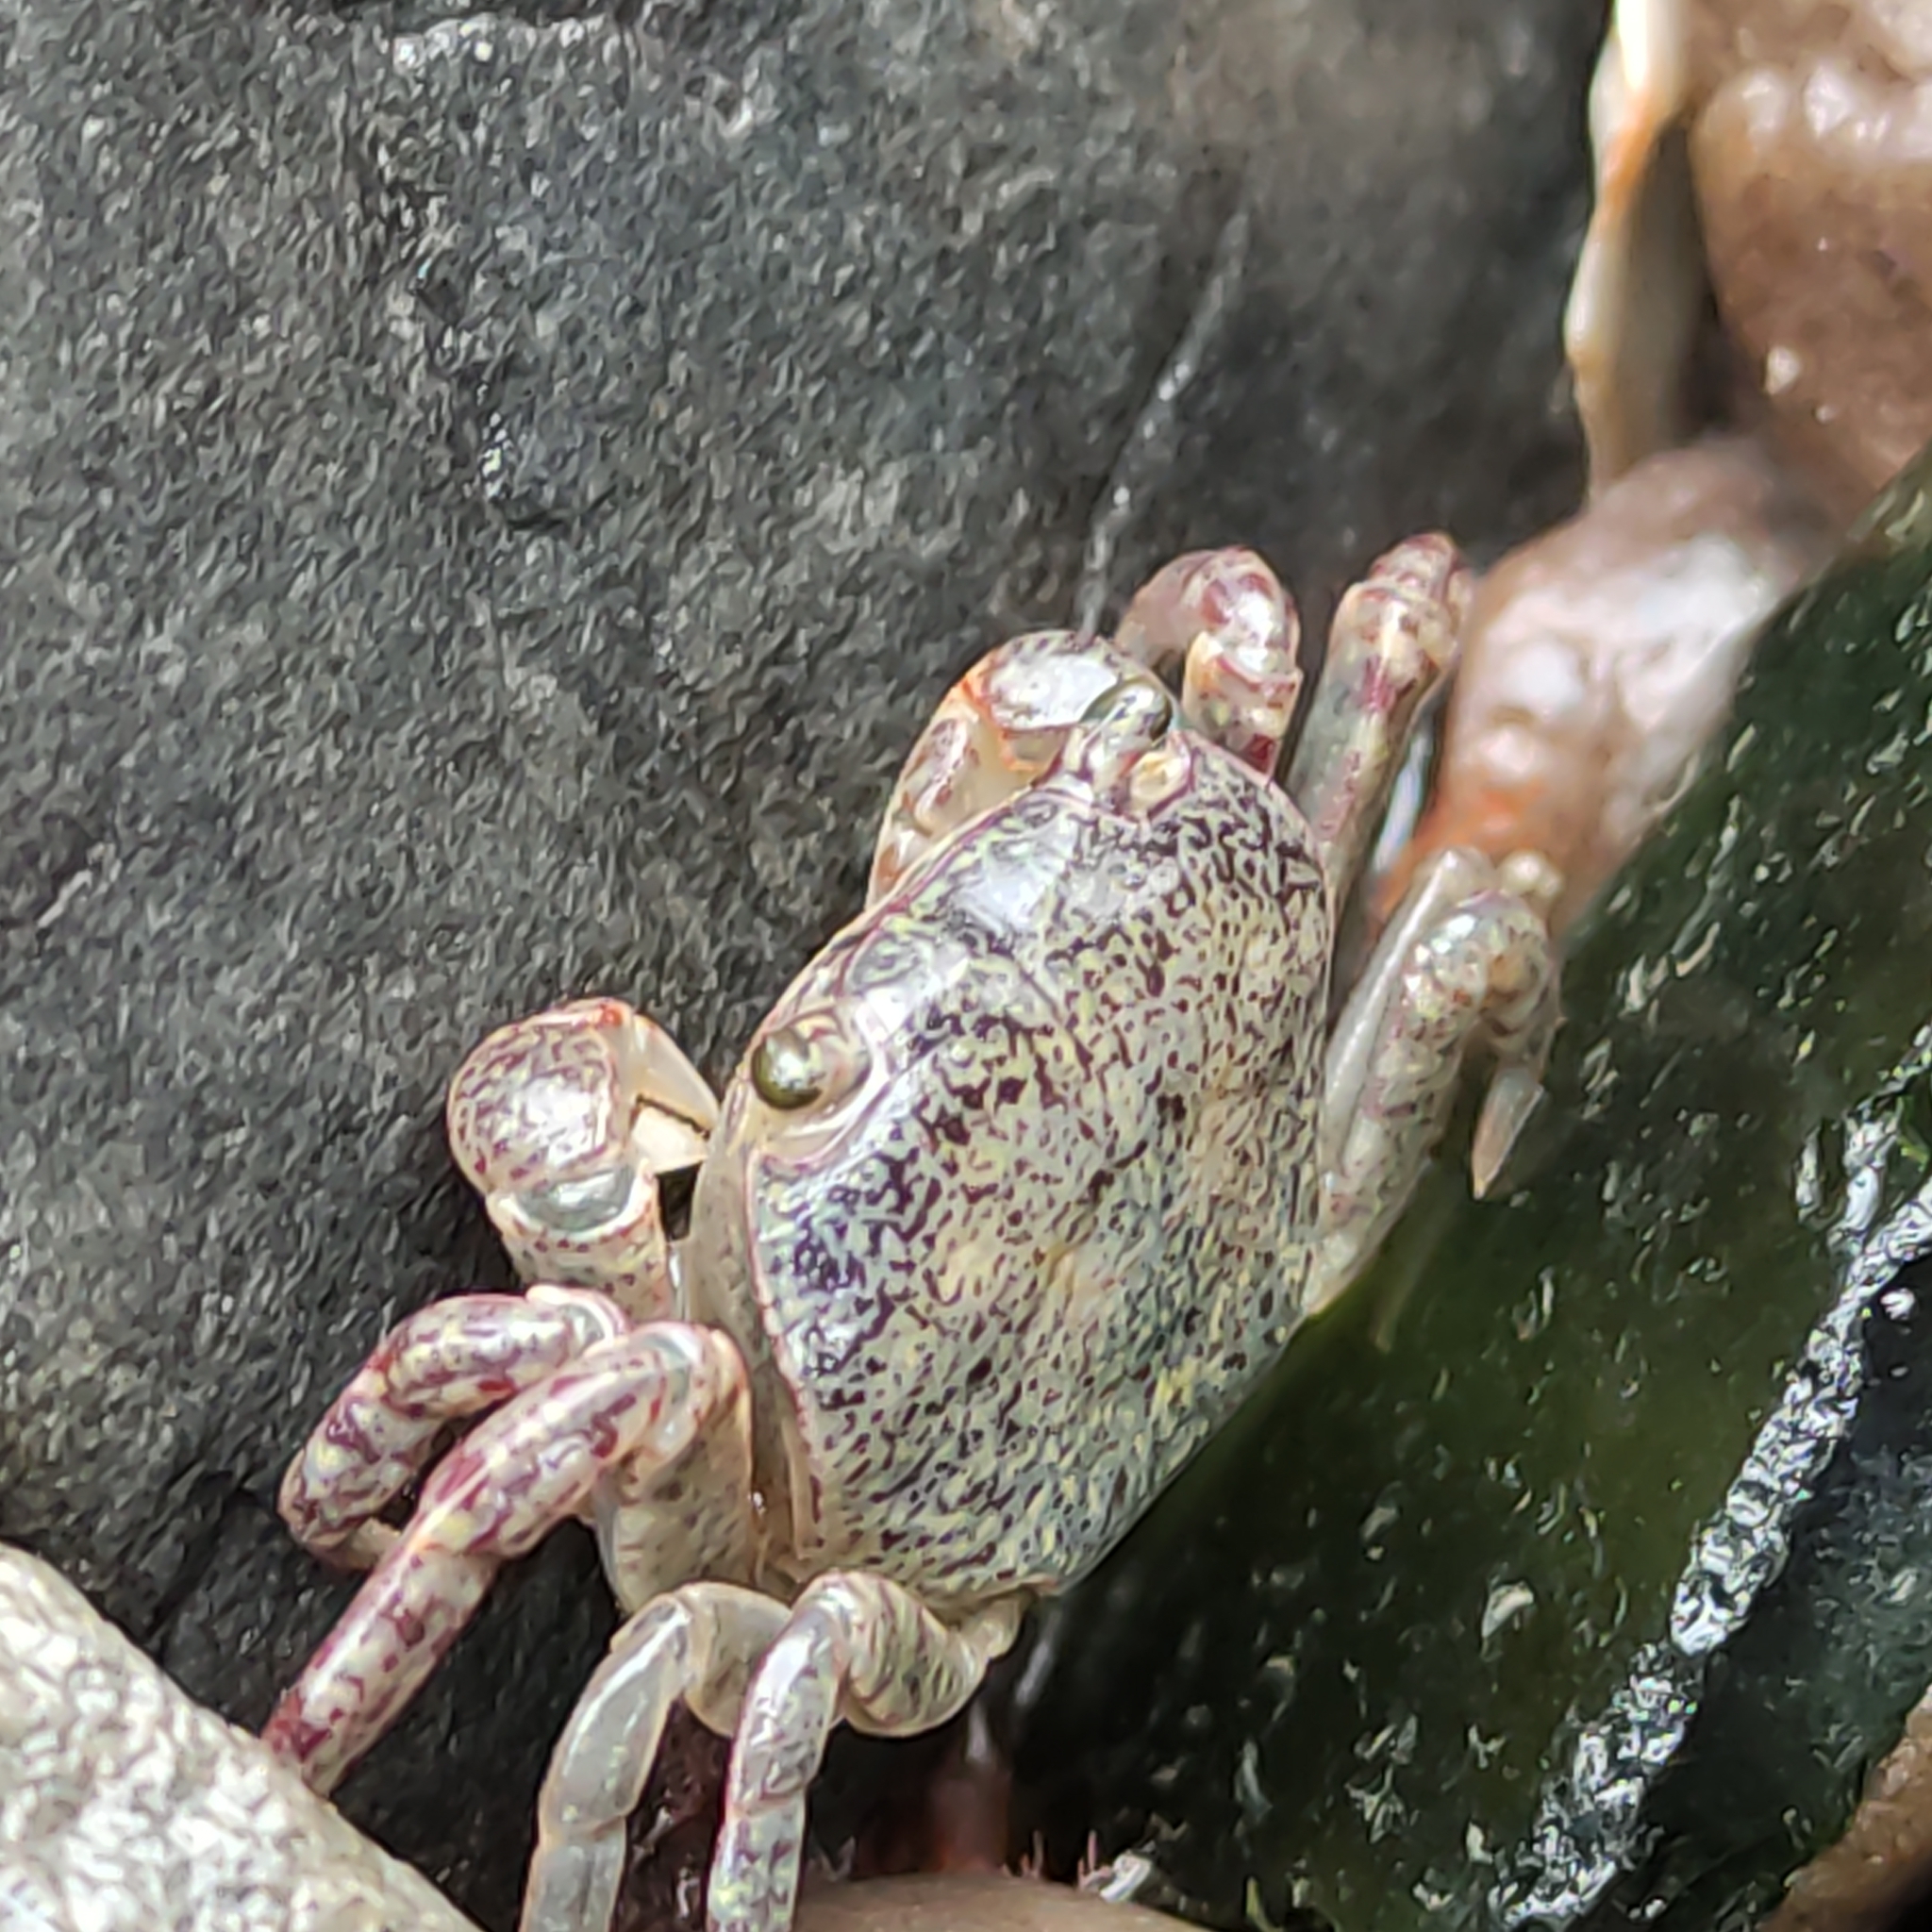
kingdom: Animalia
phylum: Arthropoda
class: Malacostraca
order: Decapoda
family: Varunidae
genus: Cyclograpsus
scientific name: Cyclograpsus lavauxi
